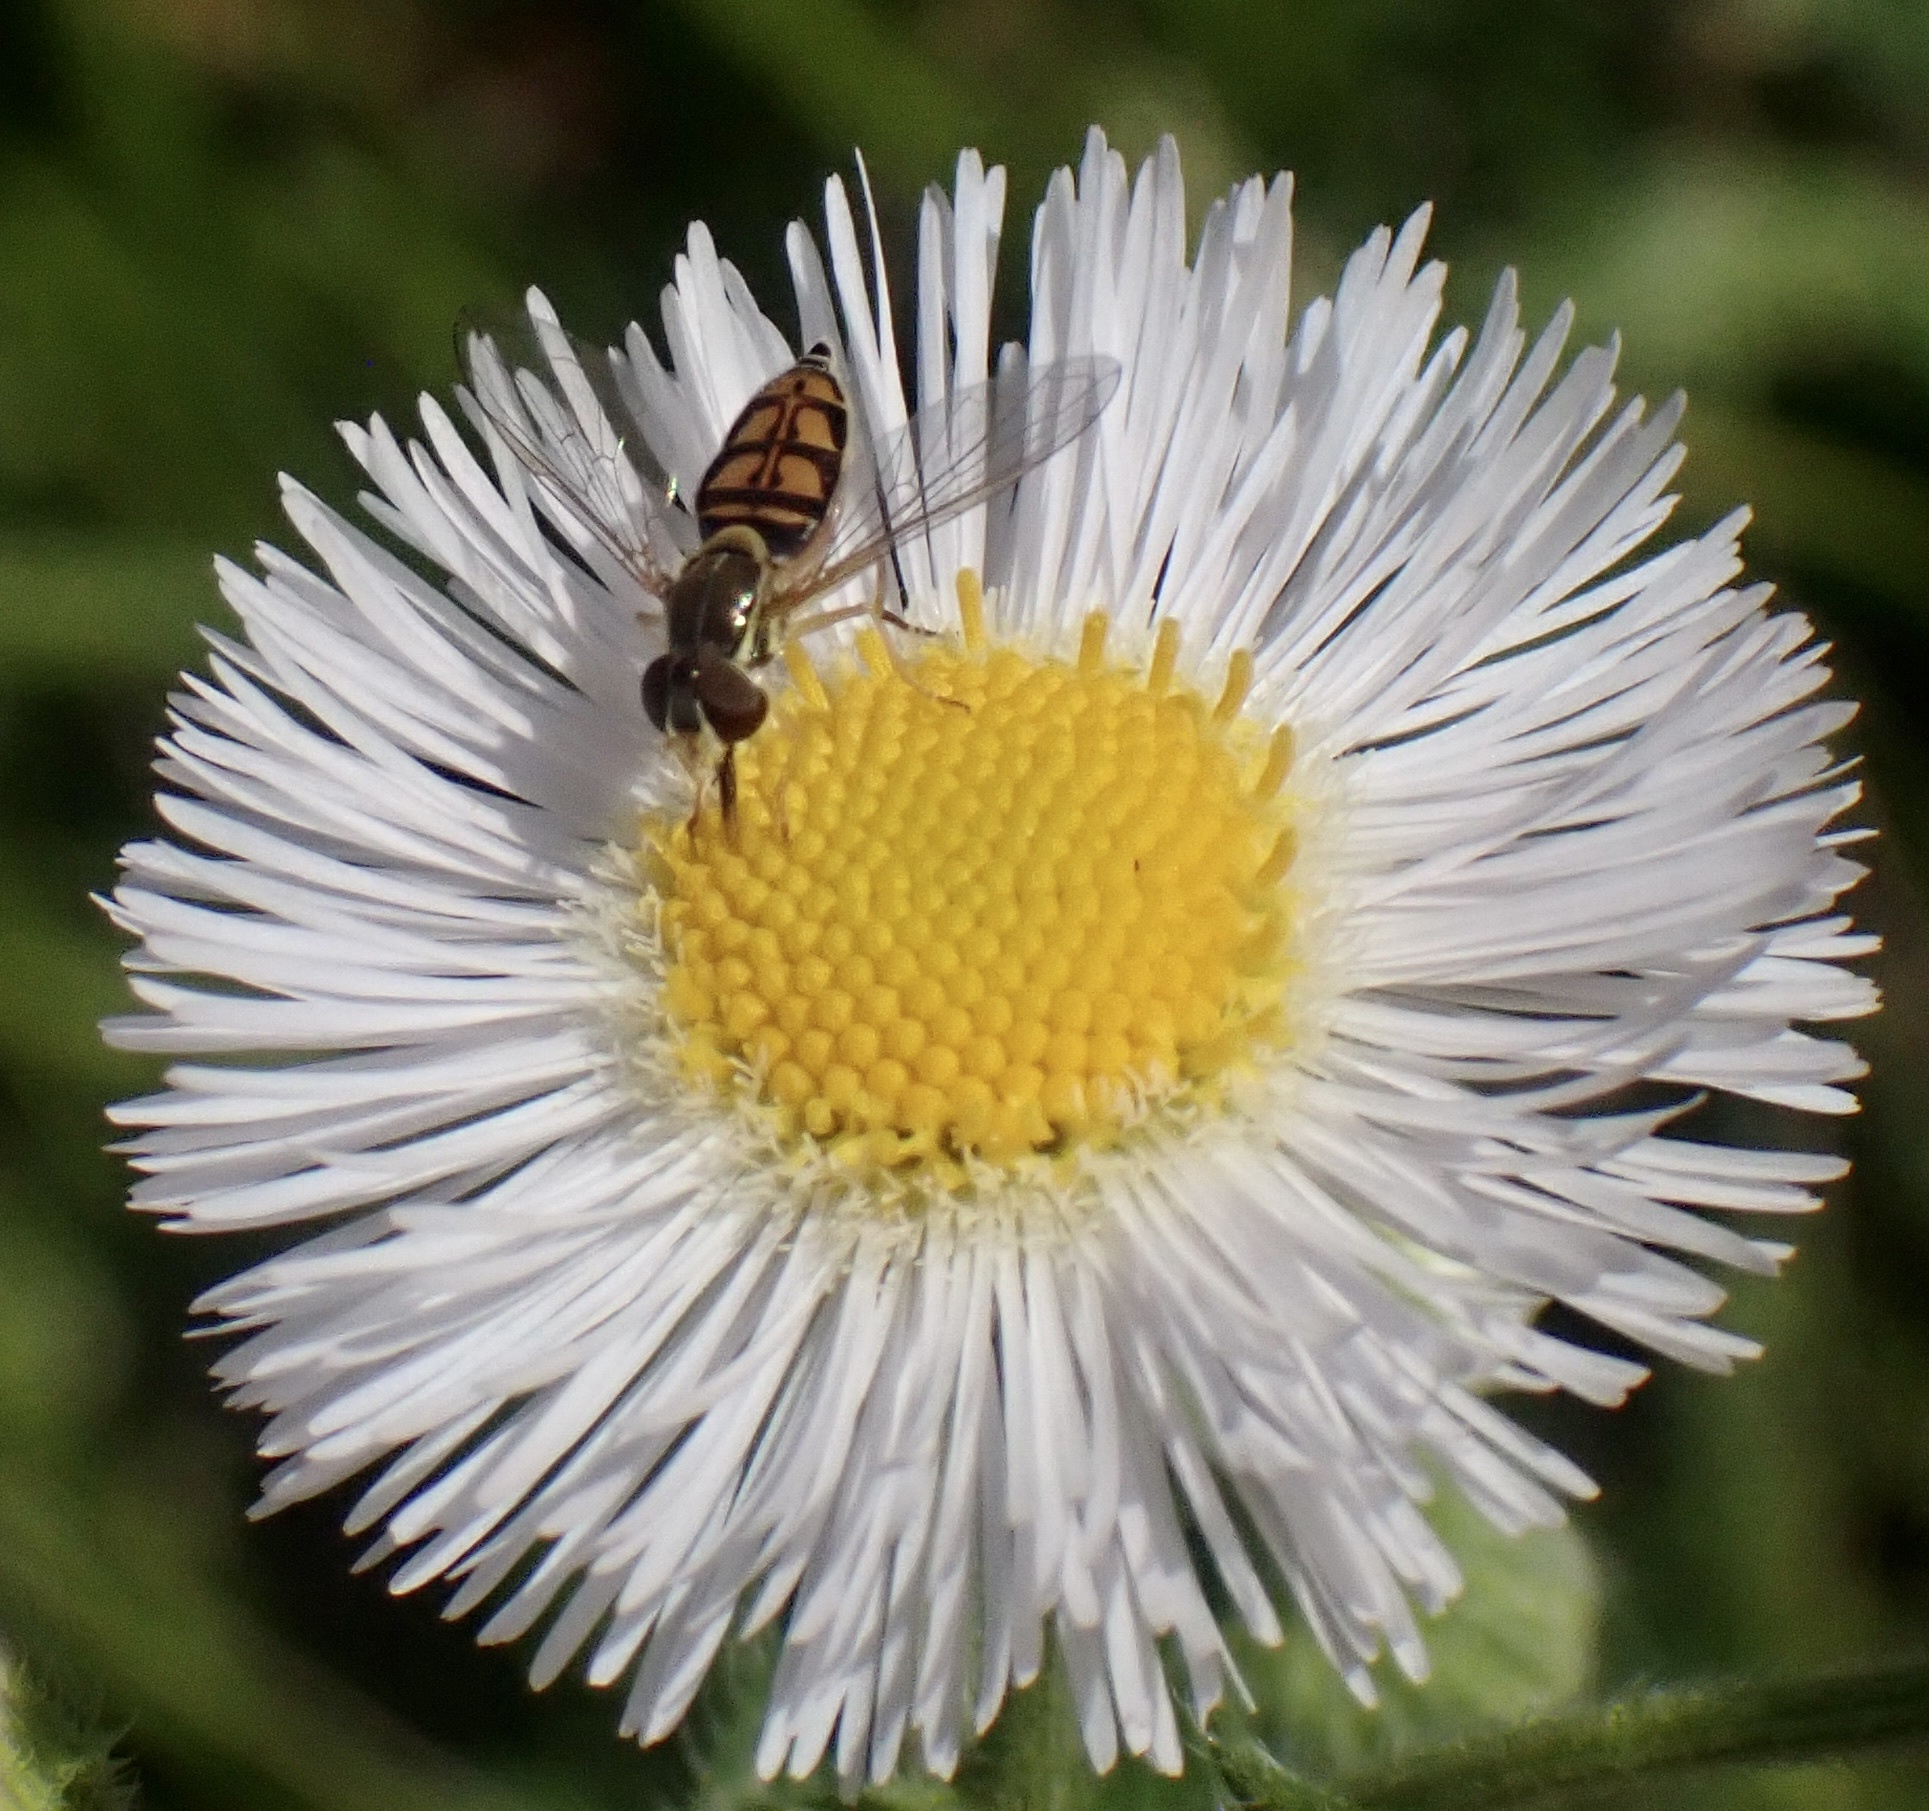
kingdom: Animalia
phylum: Arthropoda
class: Insecta
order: Diptera
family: Syrphidae
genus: Toxomerus
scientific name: Toxomerus marginatus
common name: Syrphid fly
